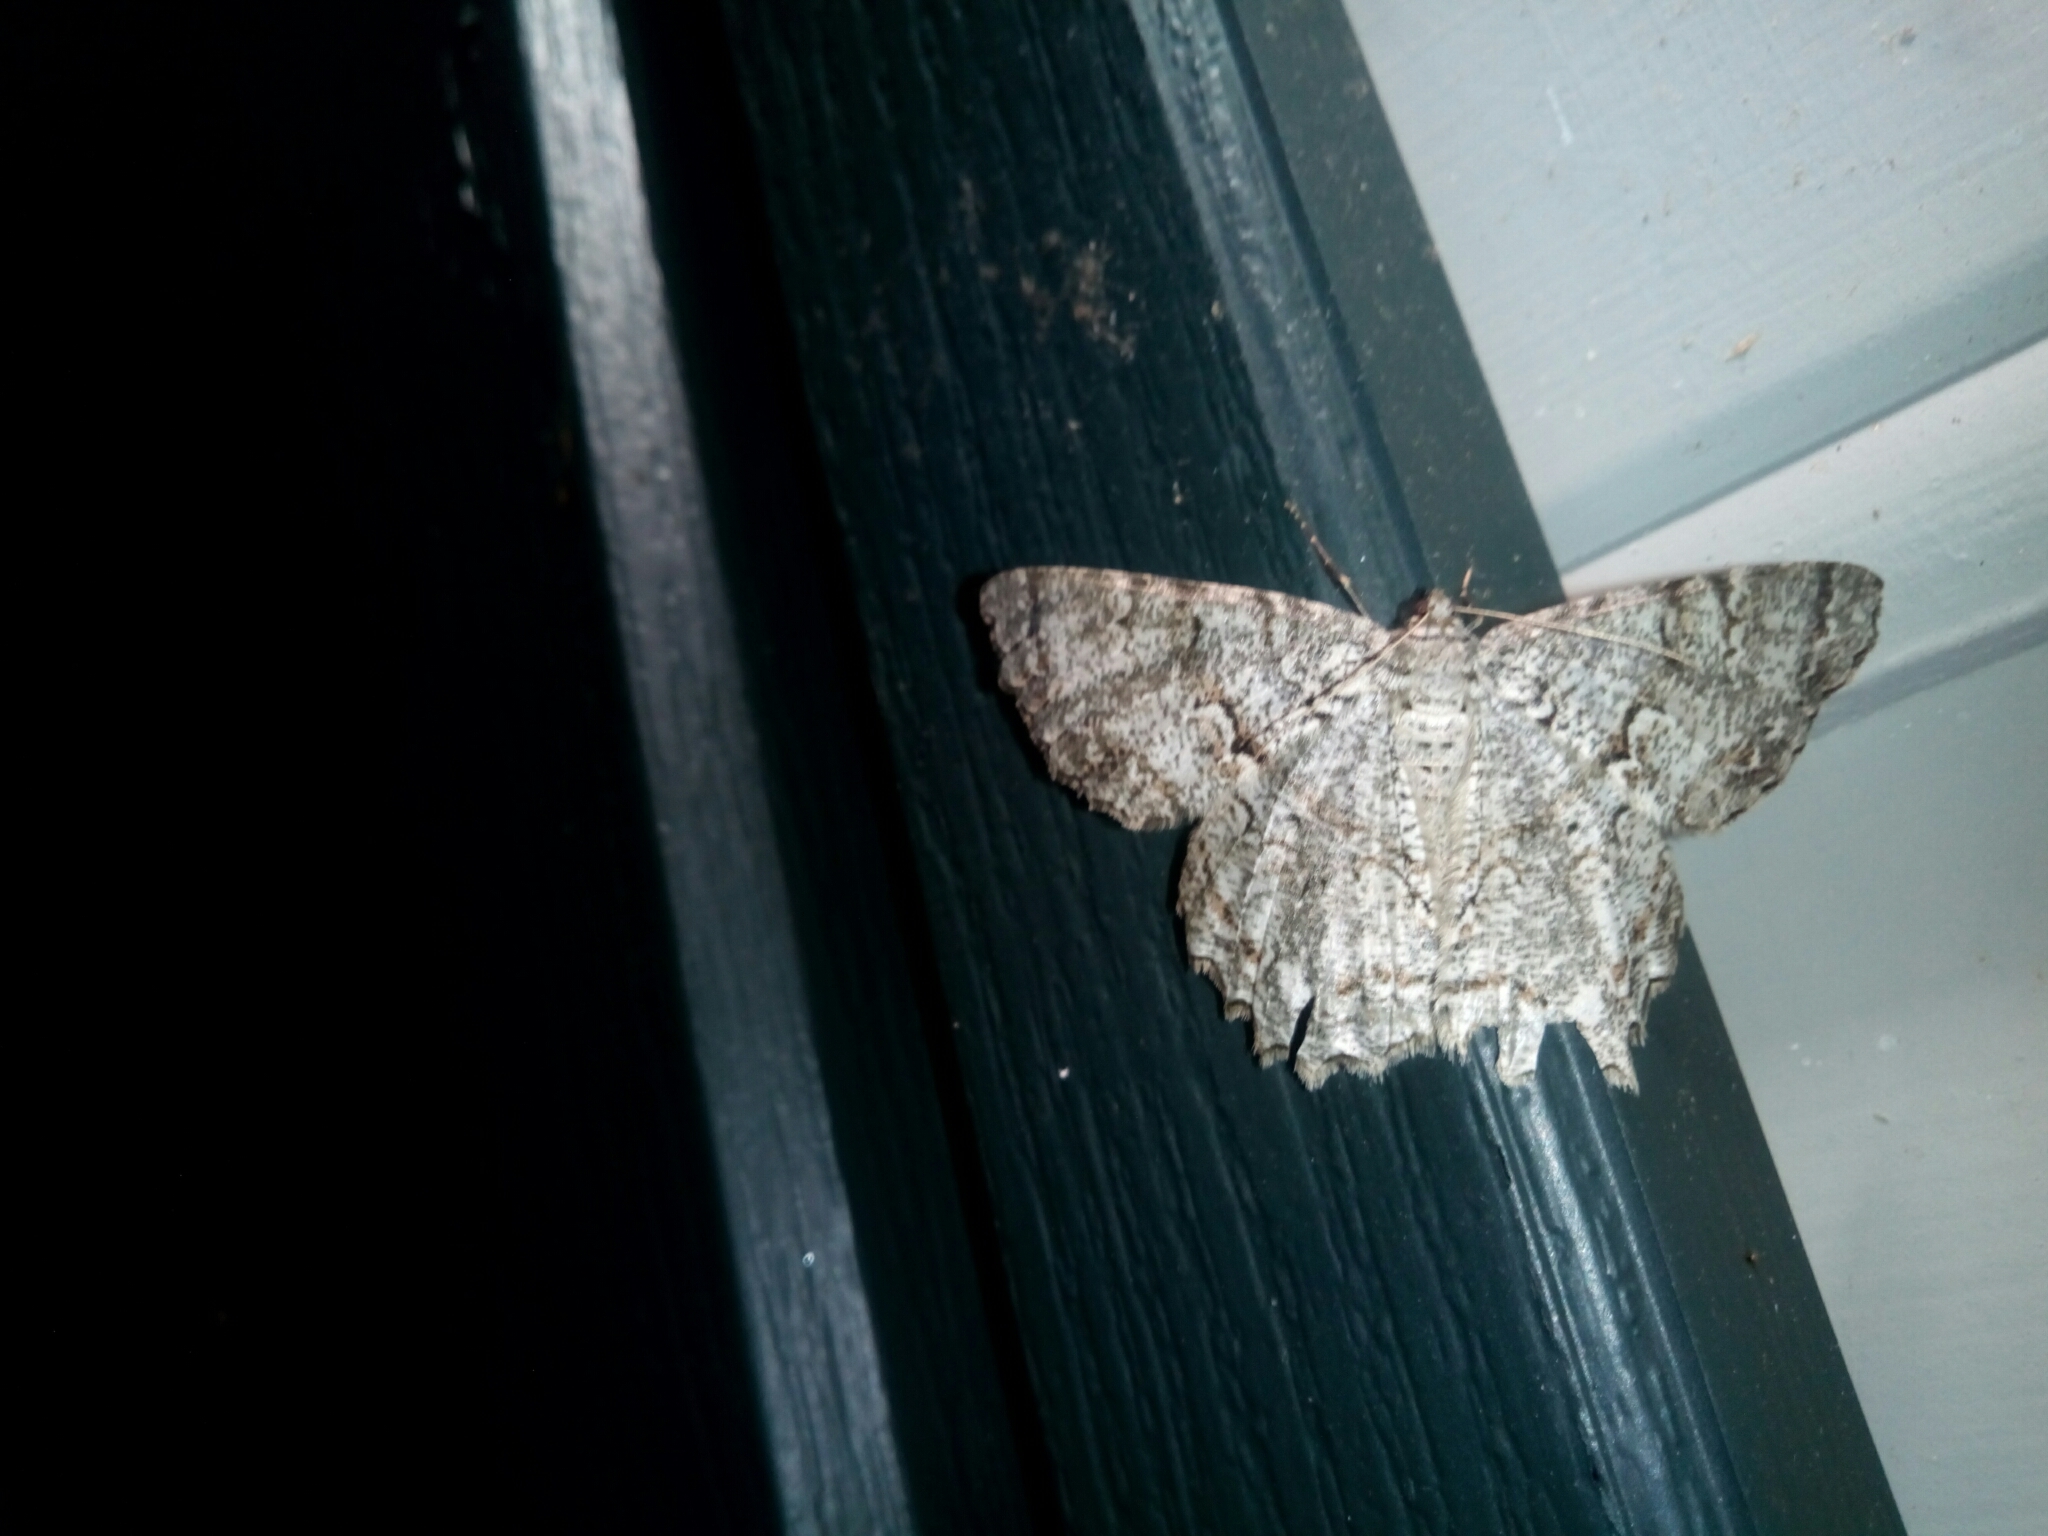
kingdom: Animalia
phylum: Arthropoda
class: Insecta
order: Lepidoptera
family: Geometridae
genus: Epimecis
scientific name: Epimecis hortaria
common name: Tulip-tree beauty
